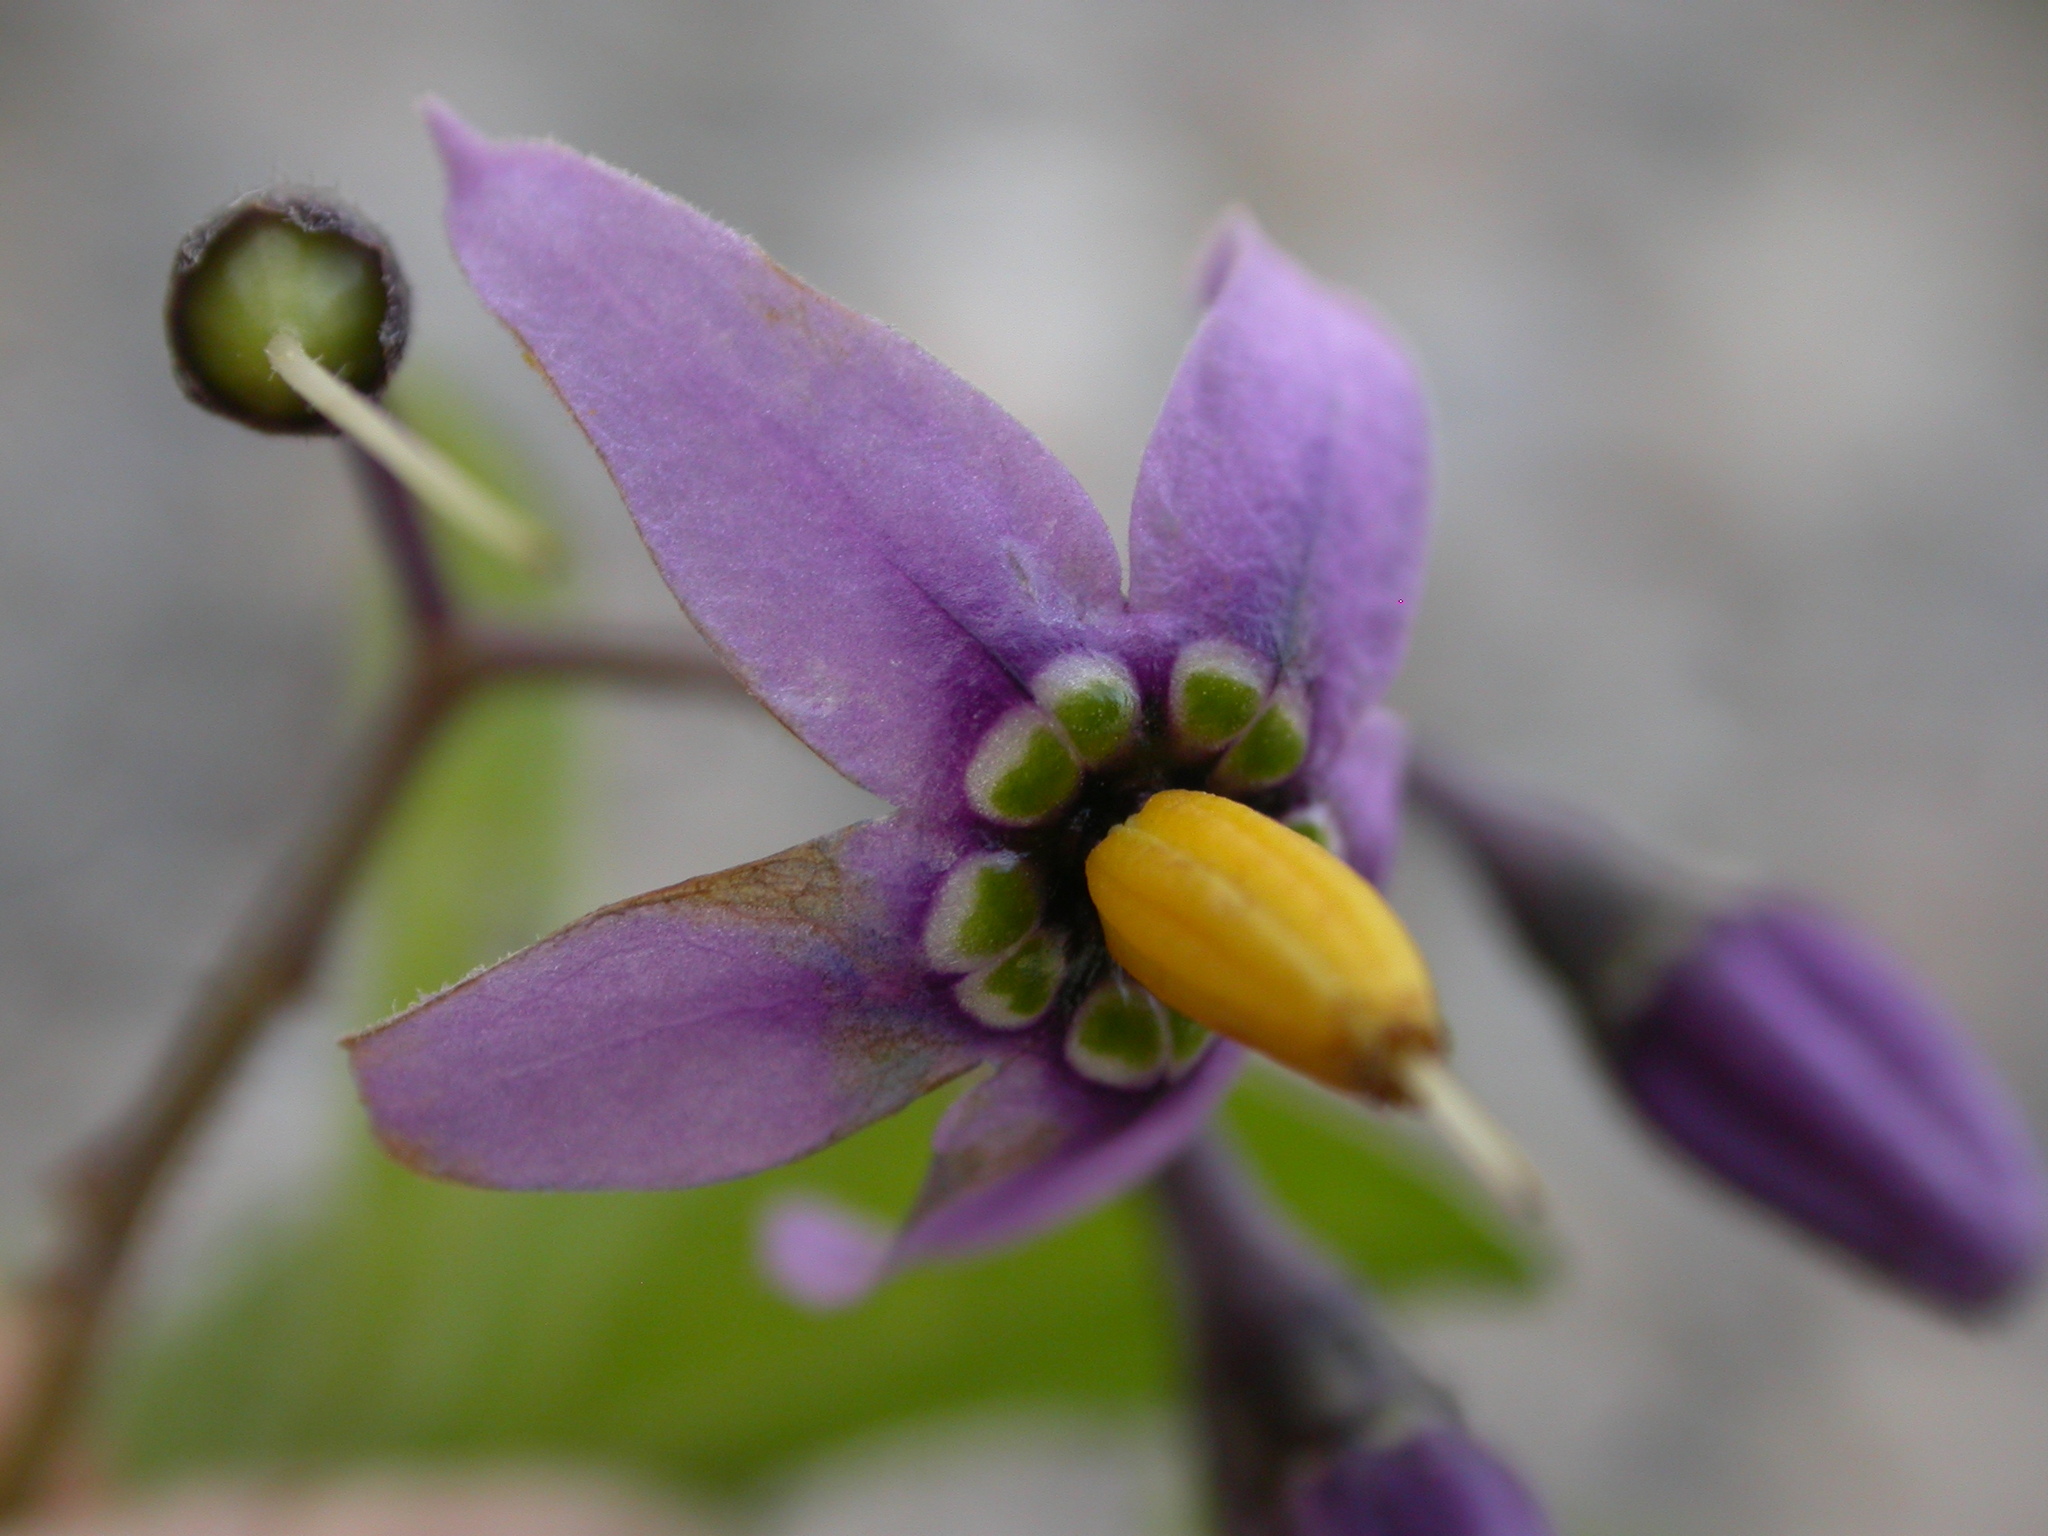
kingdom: Plantae
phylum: Tracheophyta
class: Magnoliopsida
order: Solanales
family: Solanaceae
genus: Solanum
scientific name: Solanum dulcamara
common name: Climbing nightshade
